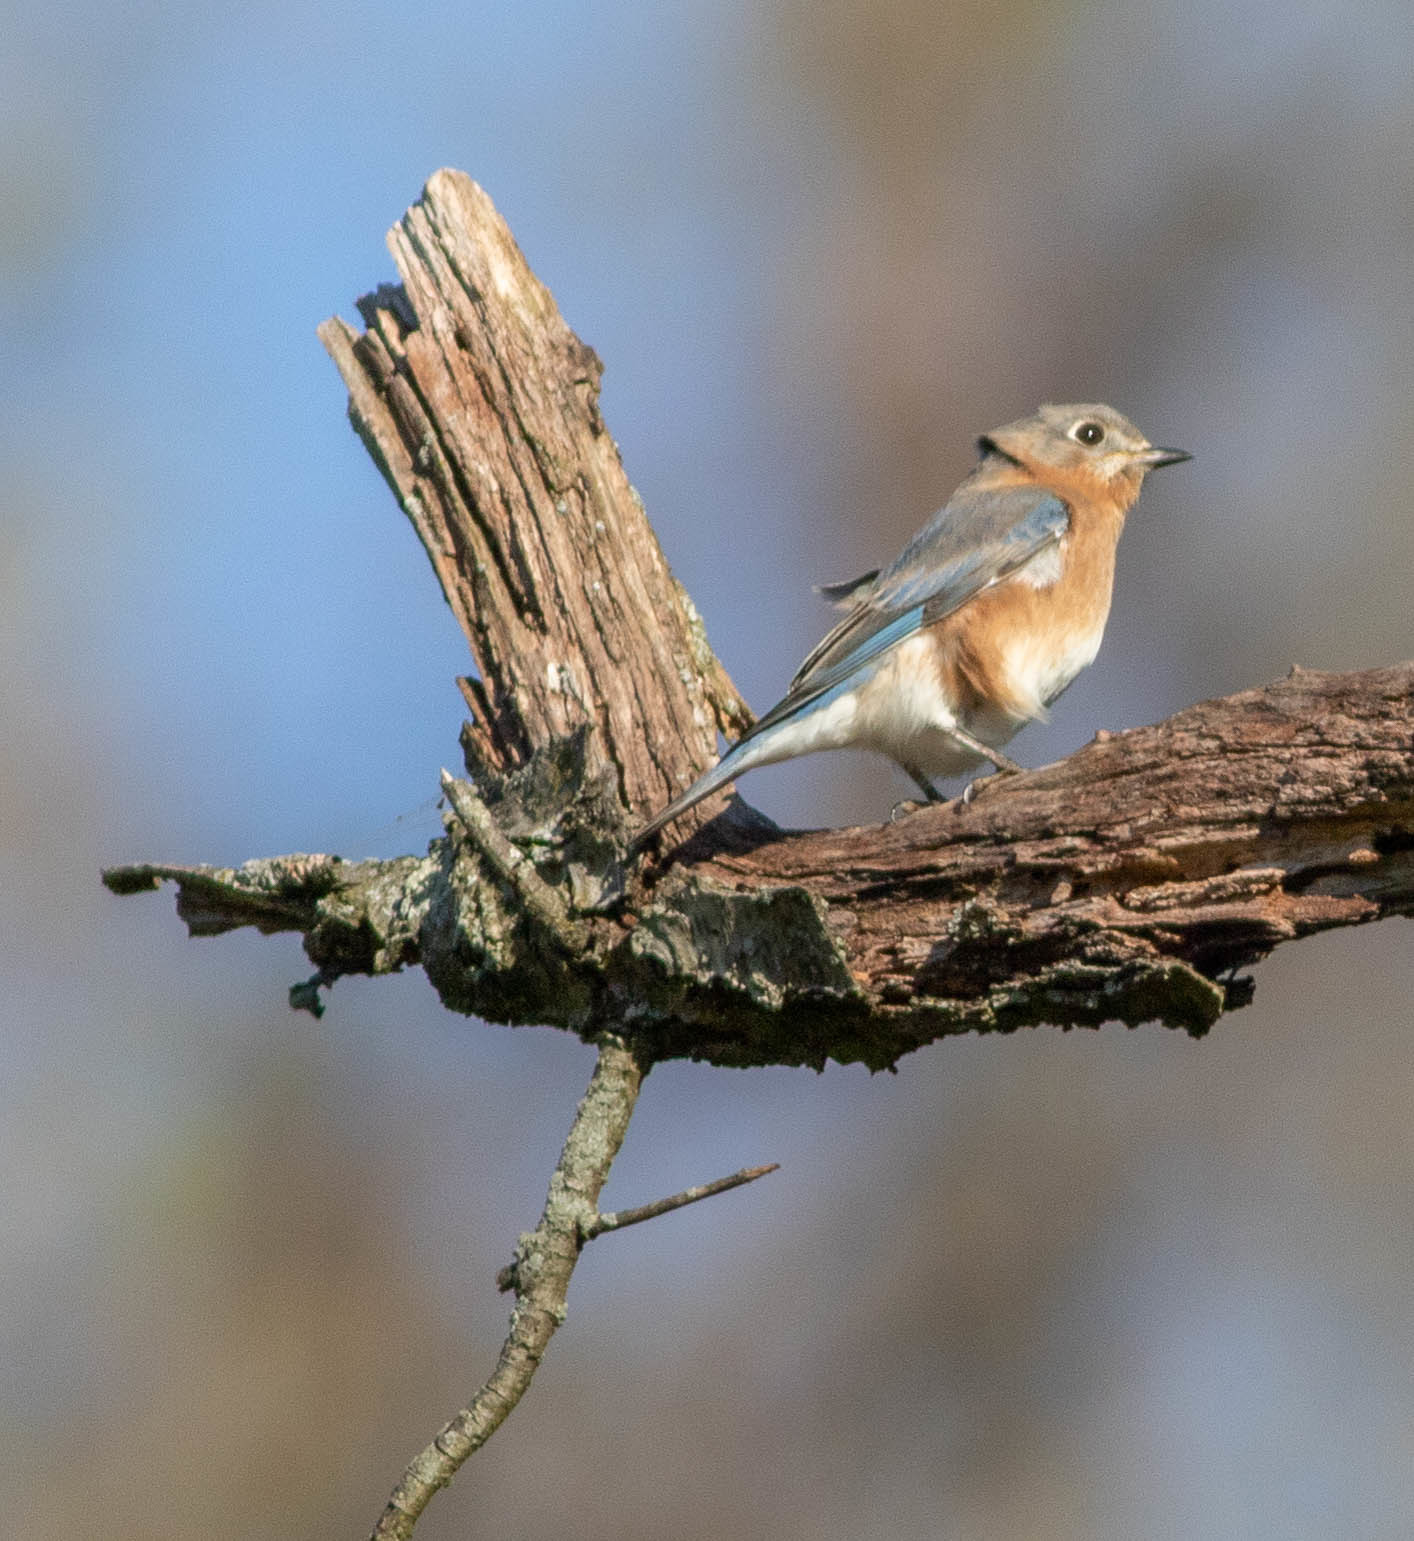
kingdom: Animalia
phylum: Chordata
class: Aves
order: Passeriformes
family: Turdidae
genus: Sialia
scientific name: Sialia sialis
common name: Eastern bluebird
